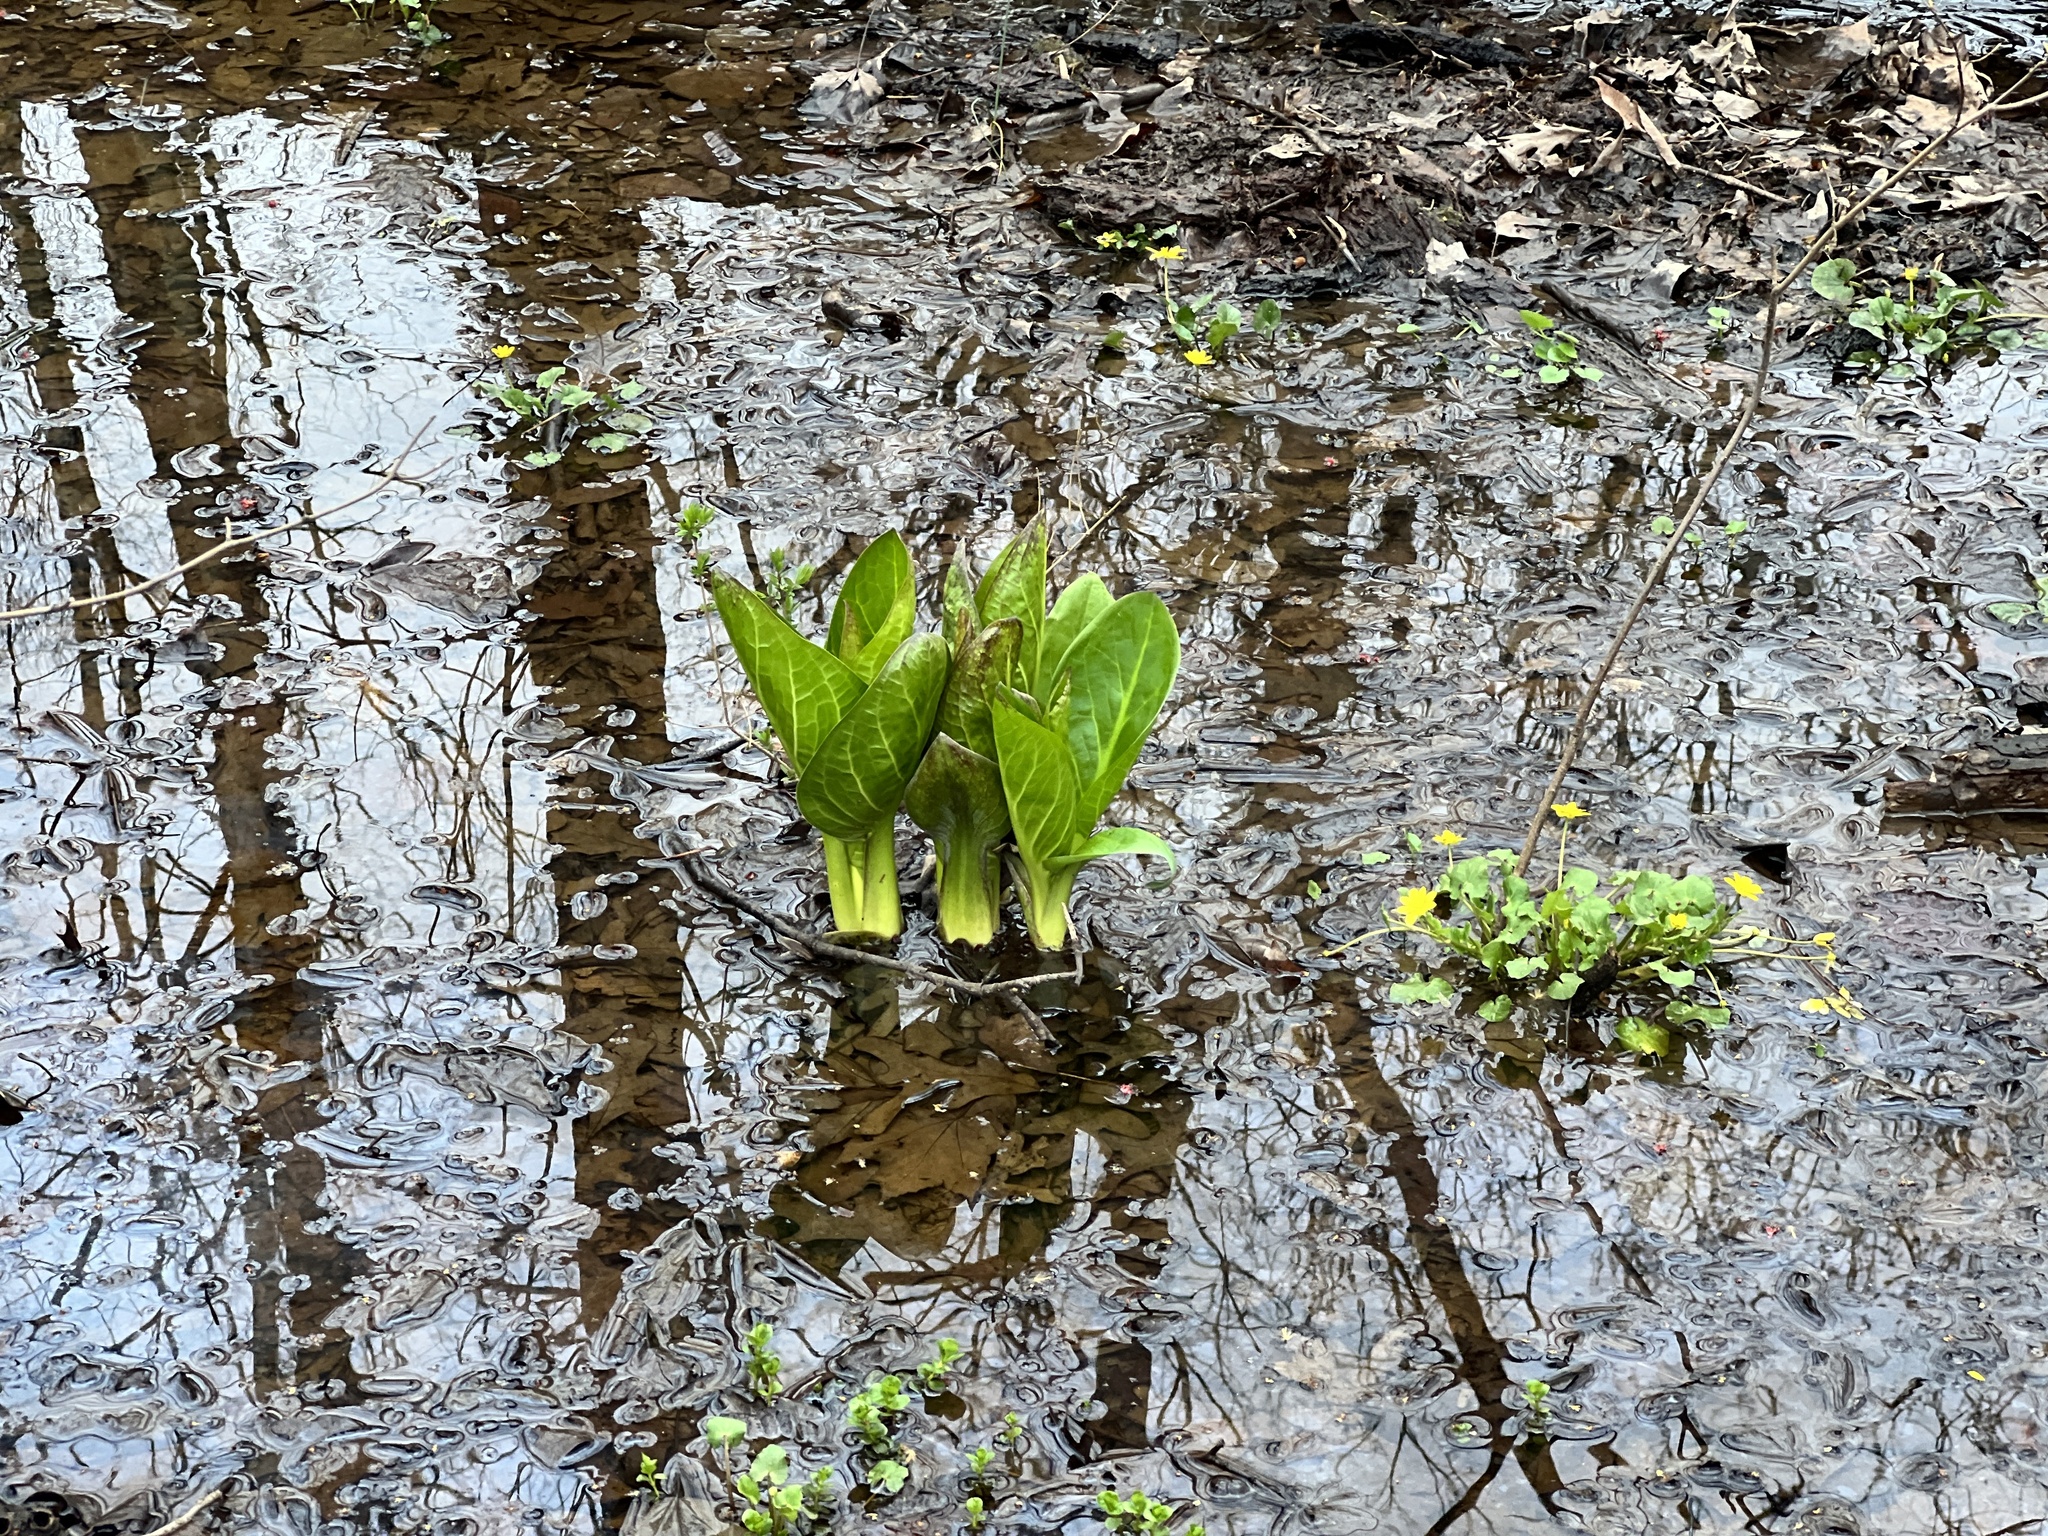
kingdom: Plantae
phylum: Tracheophyta
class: Liliopsida
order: Alismatales
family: Araceae
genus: Symplocarpus
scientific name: Symplocarpus foetidus
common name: Eastern skunk cabbage
